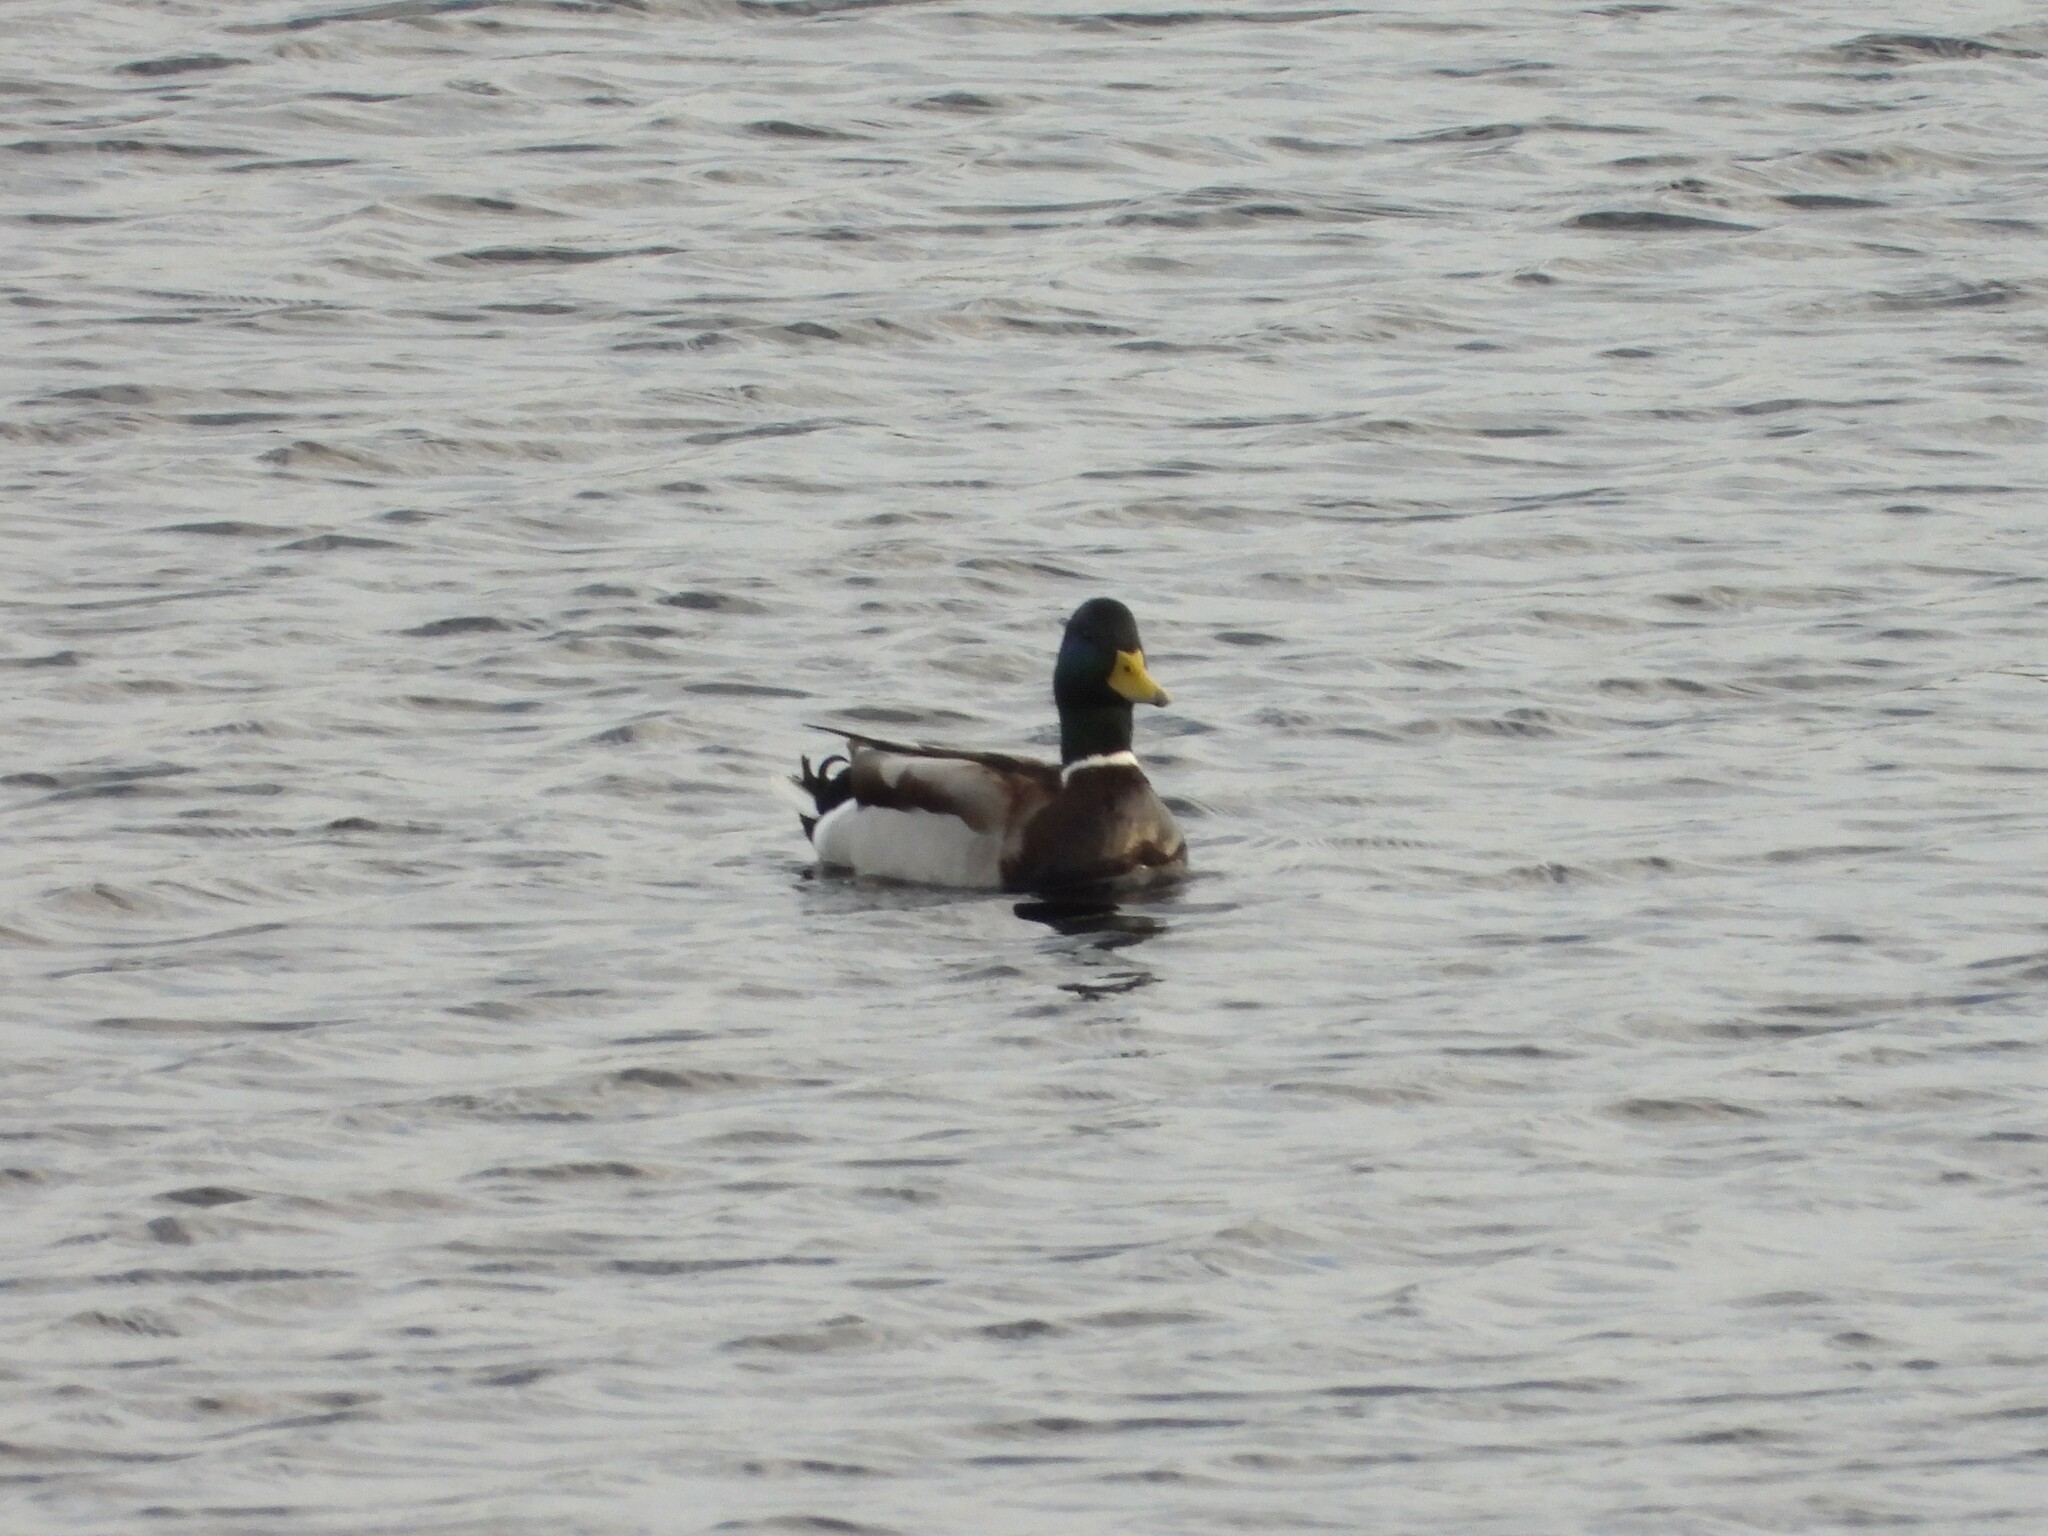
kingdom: Animalia
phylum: Chordata
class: Aves
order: Anseriformes
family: Anatidae
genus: Anas
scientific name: Anas platyrhynchos
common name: Mallard
